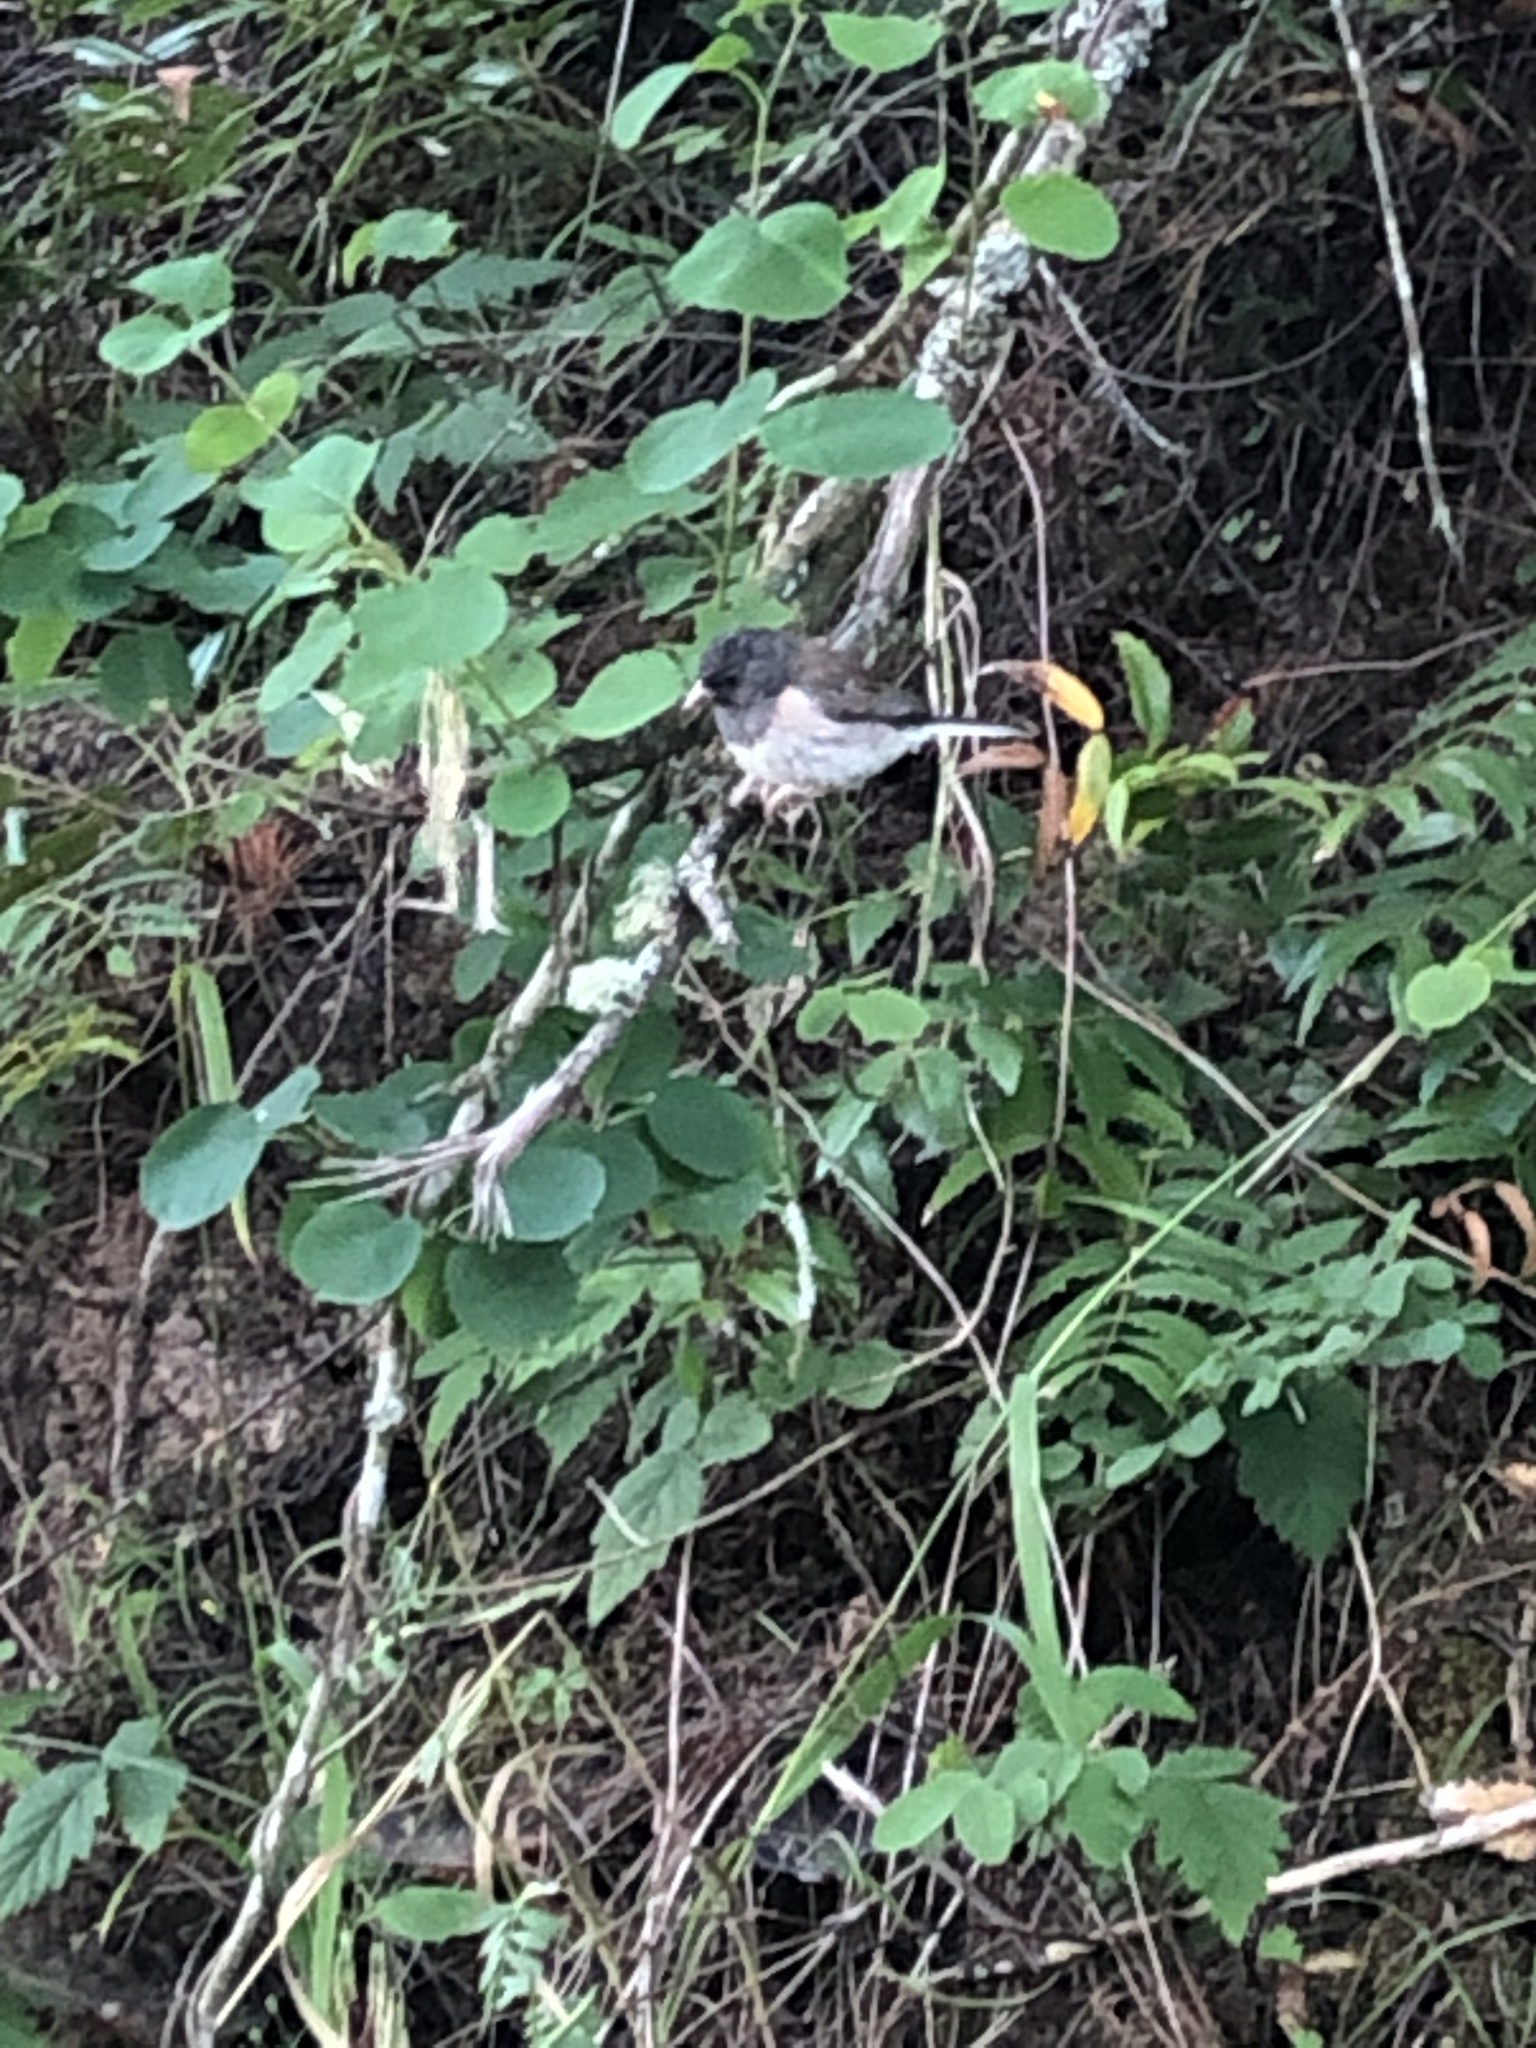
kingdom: Animalia
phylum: Chordata
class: Aves
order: Passeriformes
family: Passerellidae
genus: Junco
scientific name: Junco hyemalis
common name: Dark-eyed junco
